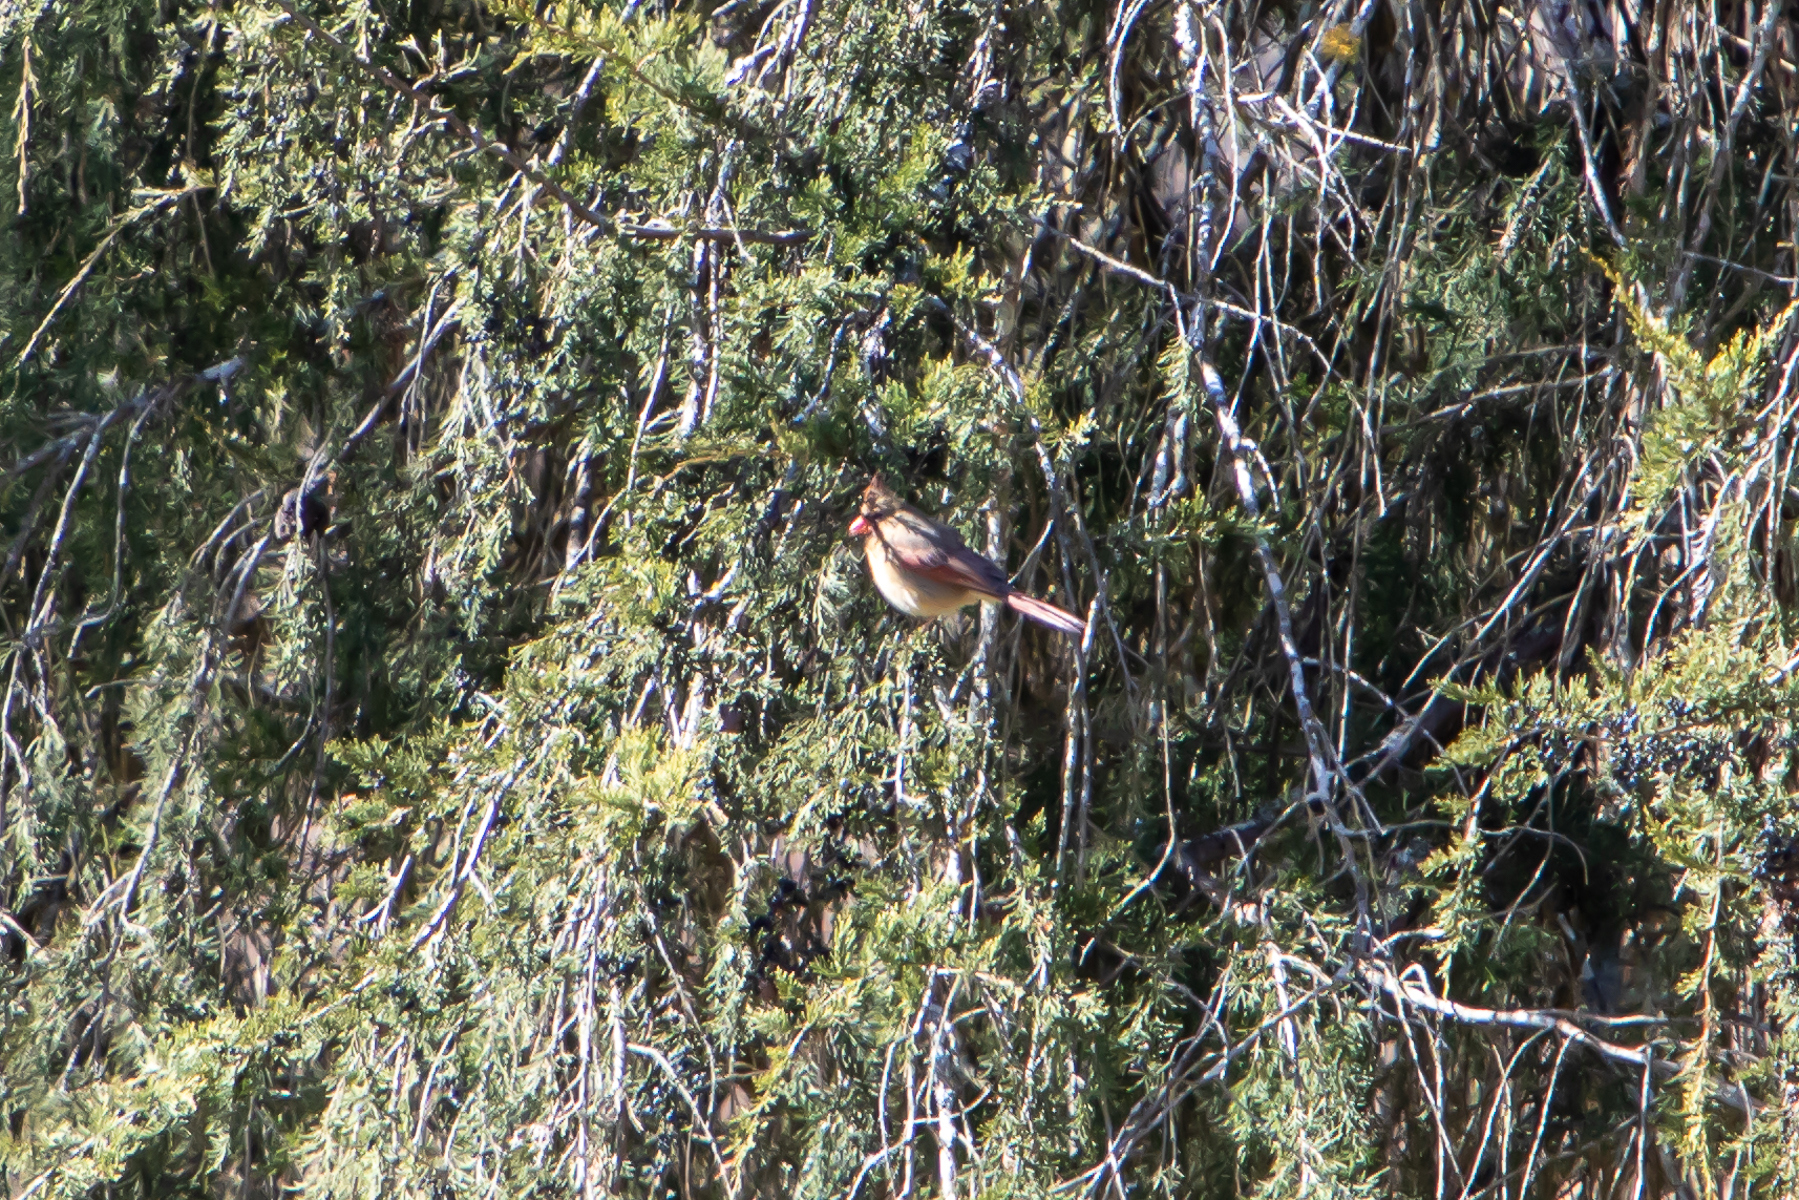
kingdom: Animalia
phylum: Chordata
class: Aves
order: Passeriformes
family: Cardinalidae
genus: Cardinalis
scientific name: Cardinalis cardinalis
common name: Northern cardinal
